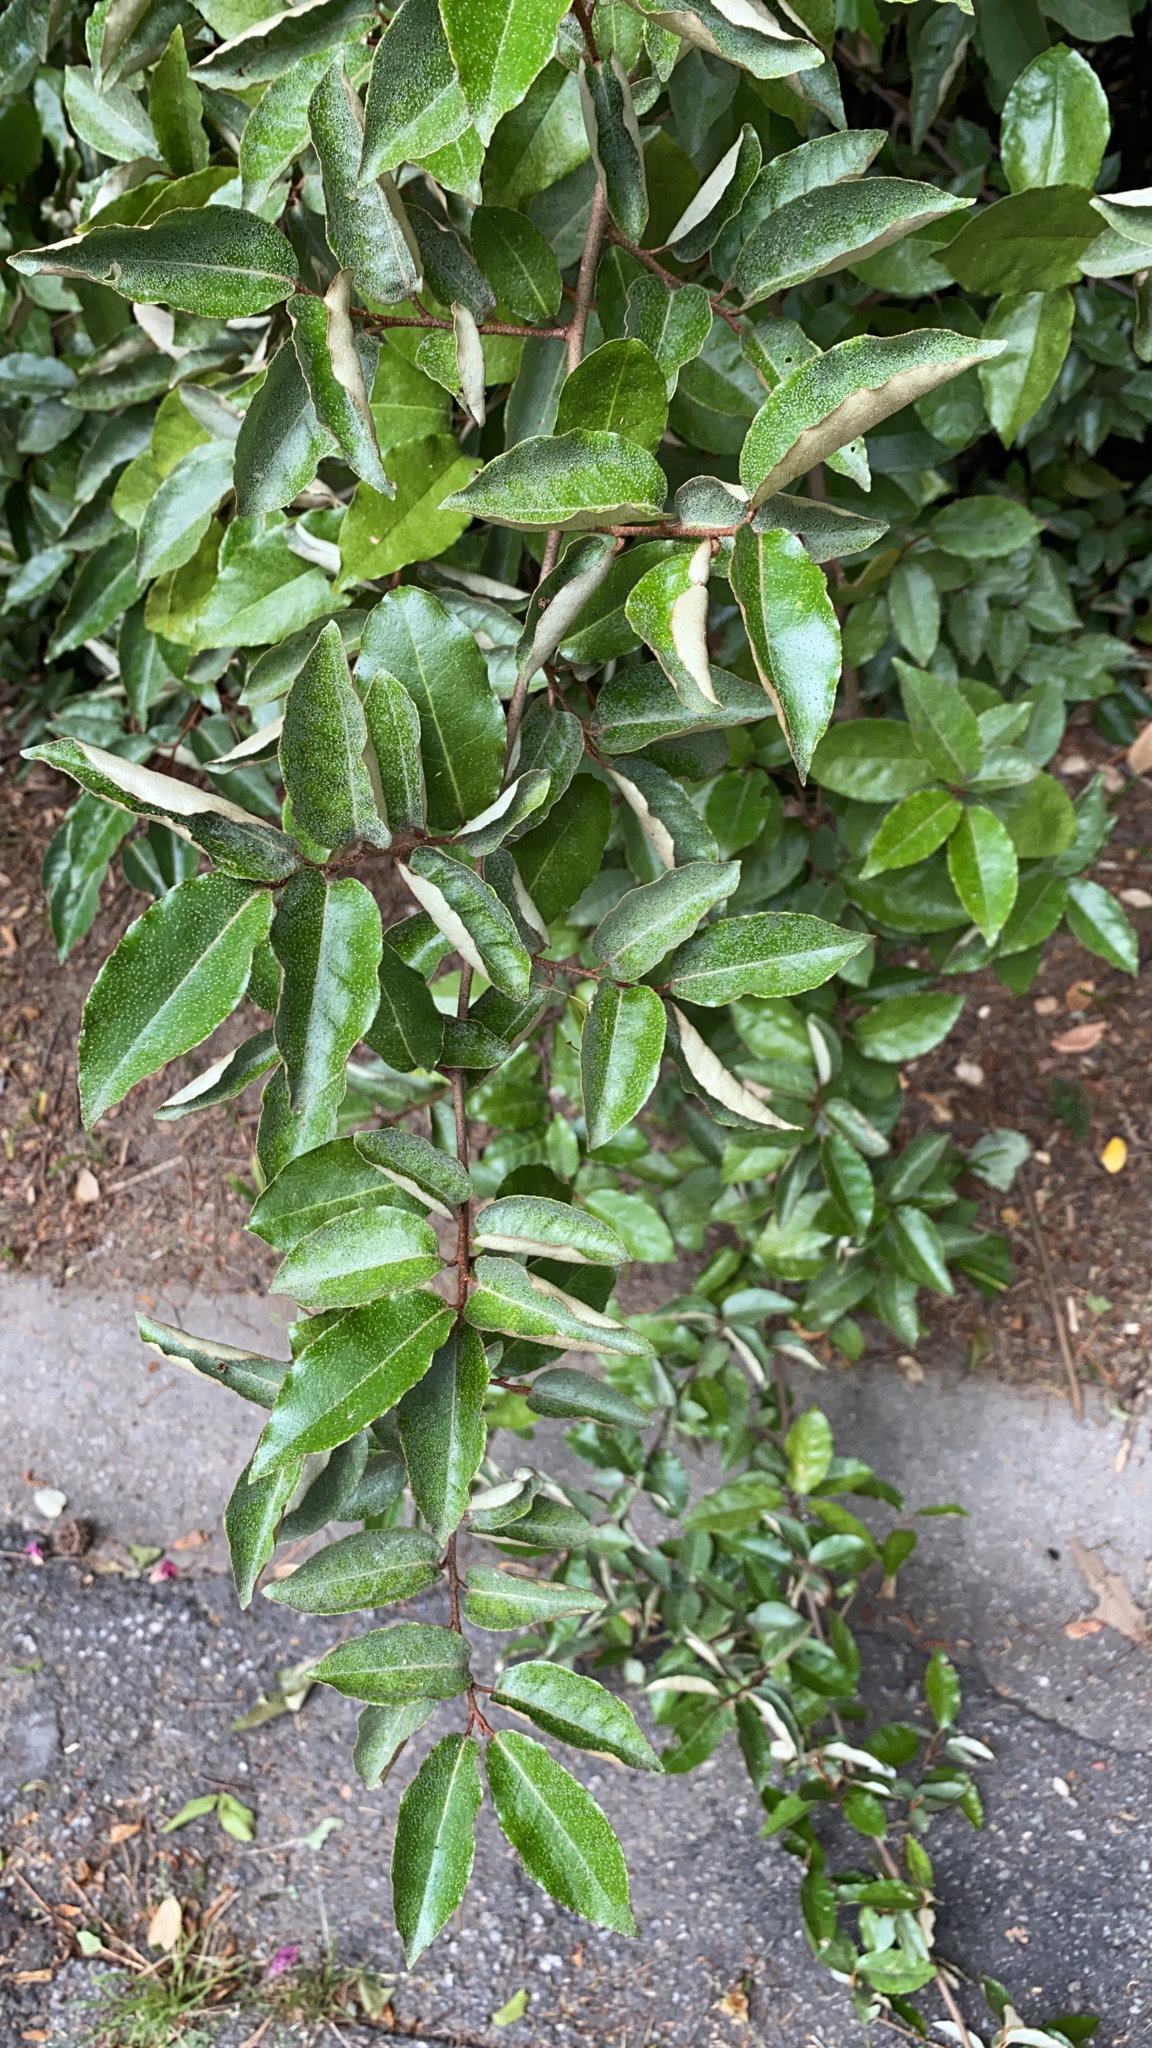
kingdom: Plantae
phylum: Tracheophyta
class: Magnoliopsida
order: Rosales
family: Elaeagnaceae
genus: Elaeagnus
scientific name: Elaeagnus pungens
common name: Spiny oleaster
